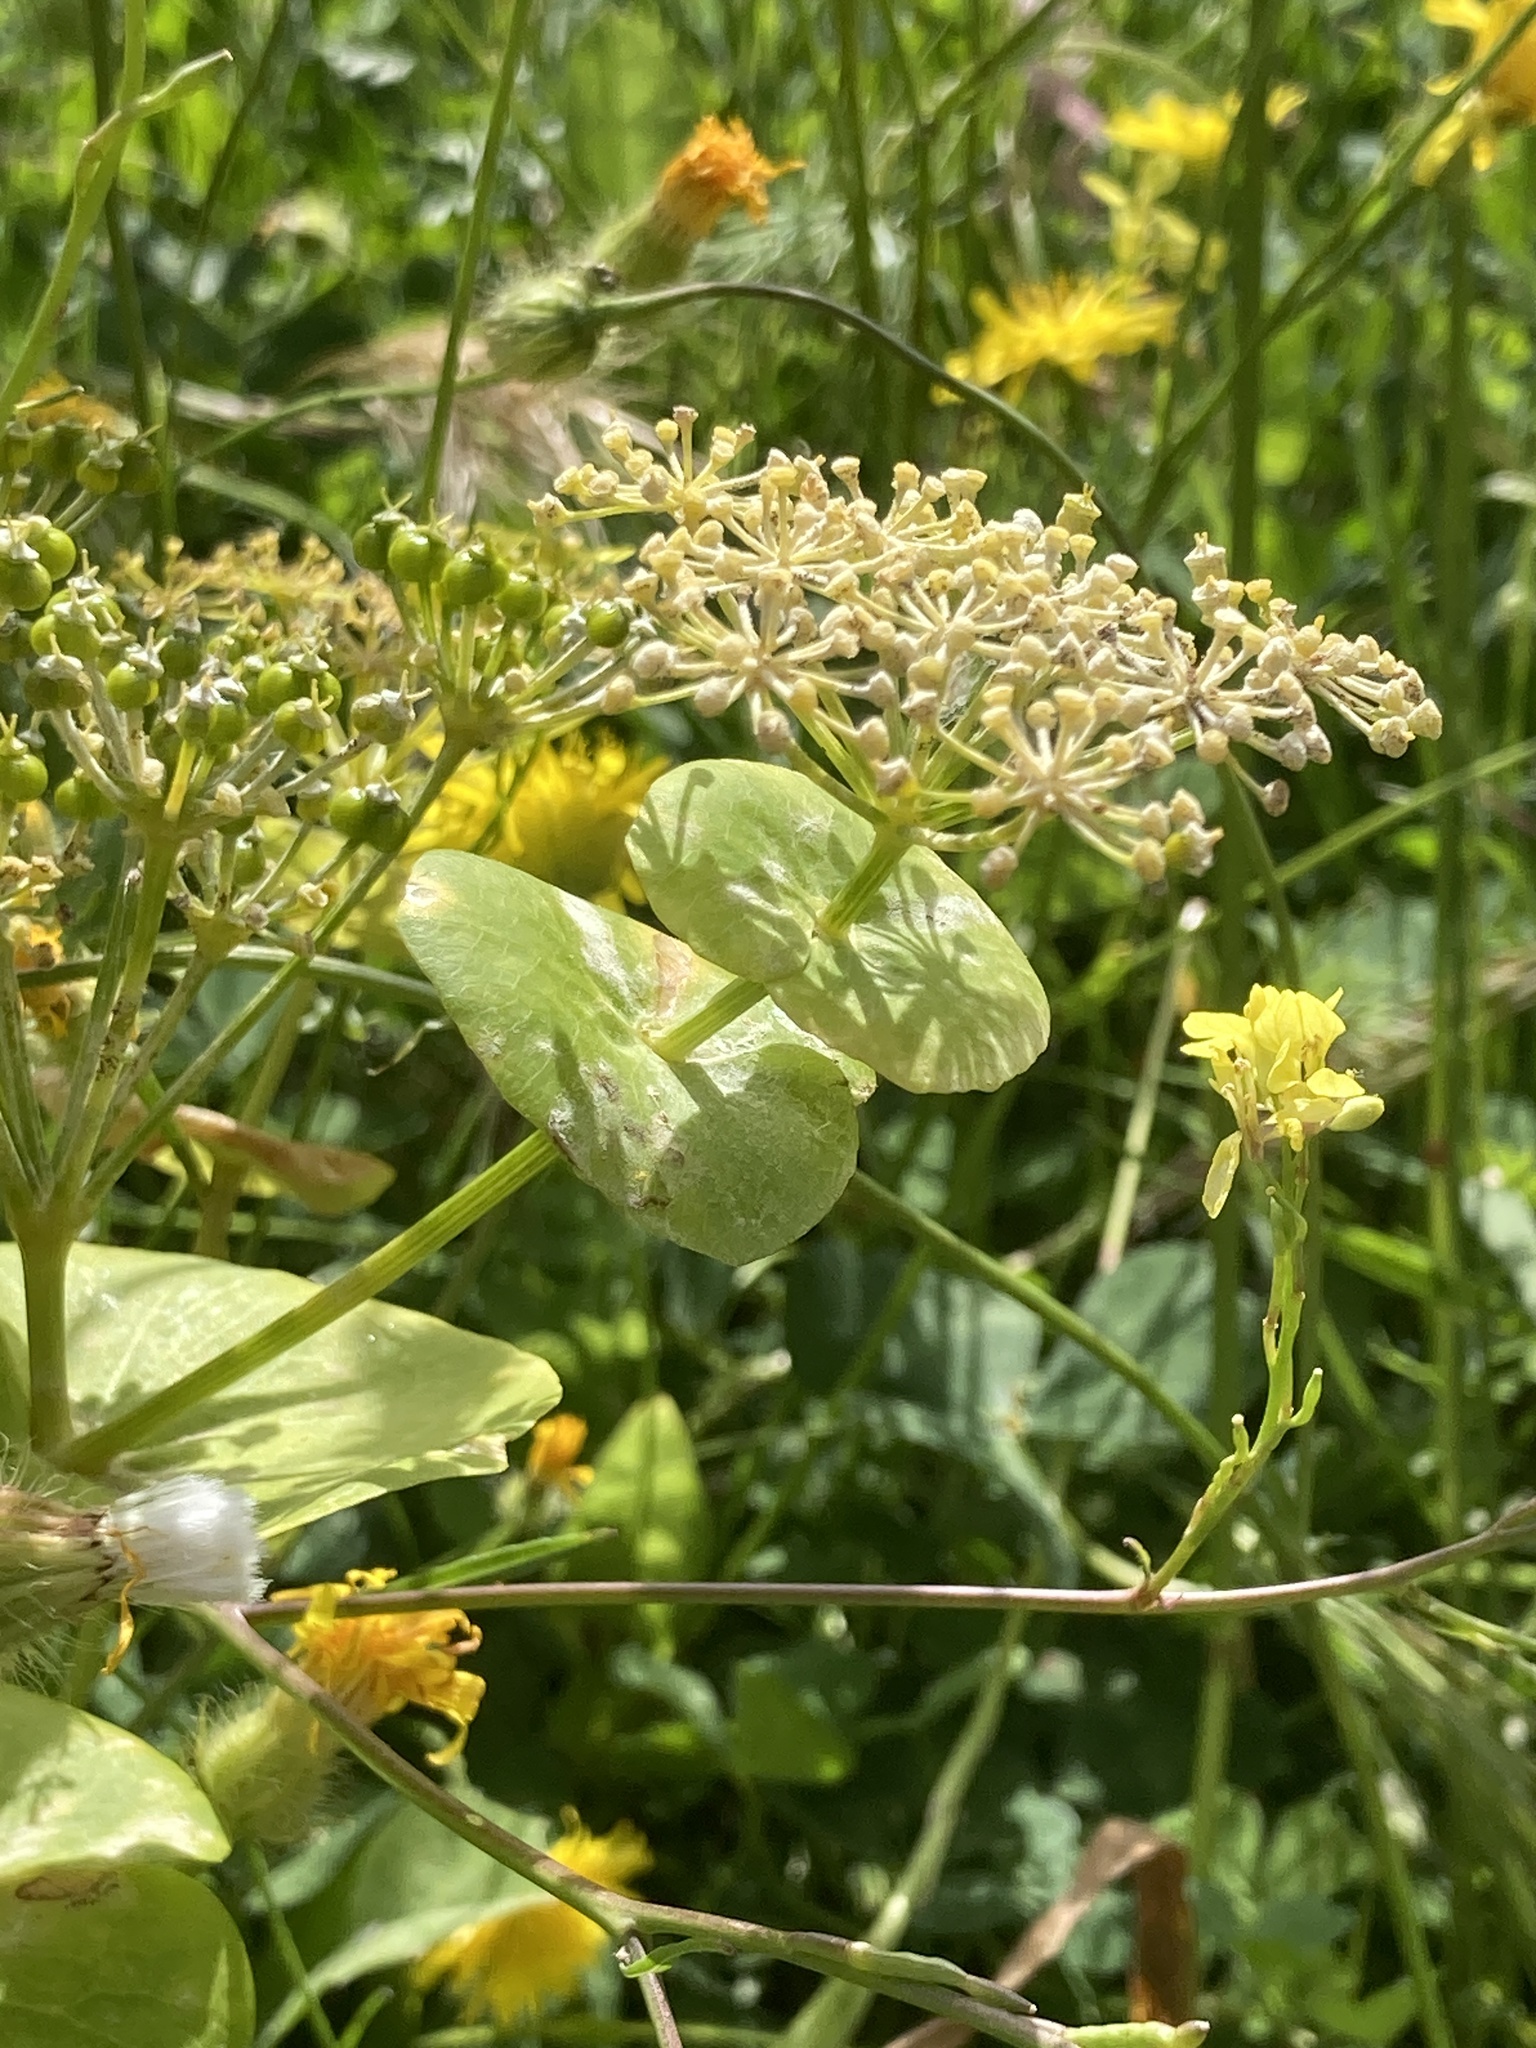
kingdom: Plantae
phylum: Tracheophyta
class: Magnoliopsida
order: Apiales
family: Apiaceae
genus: Smyrnium
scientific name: Smyrnium perfoliatum
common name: Perfoliate alexanders
